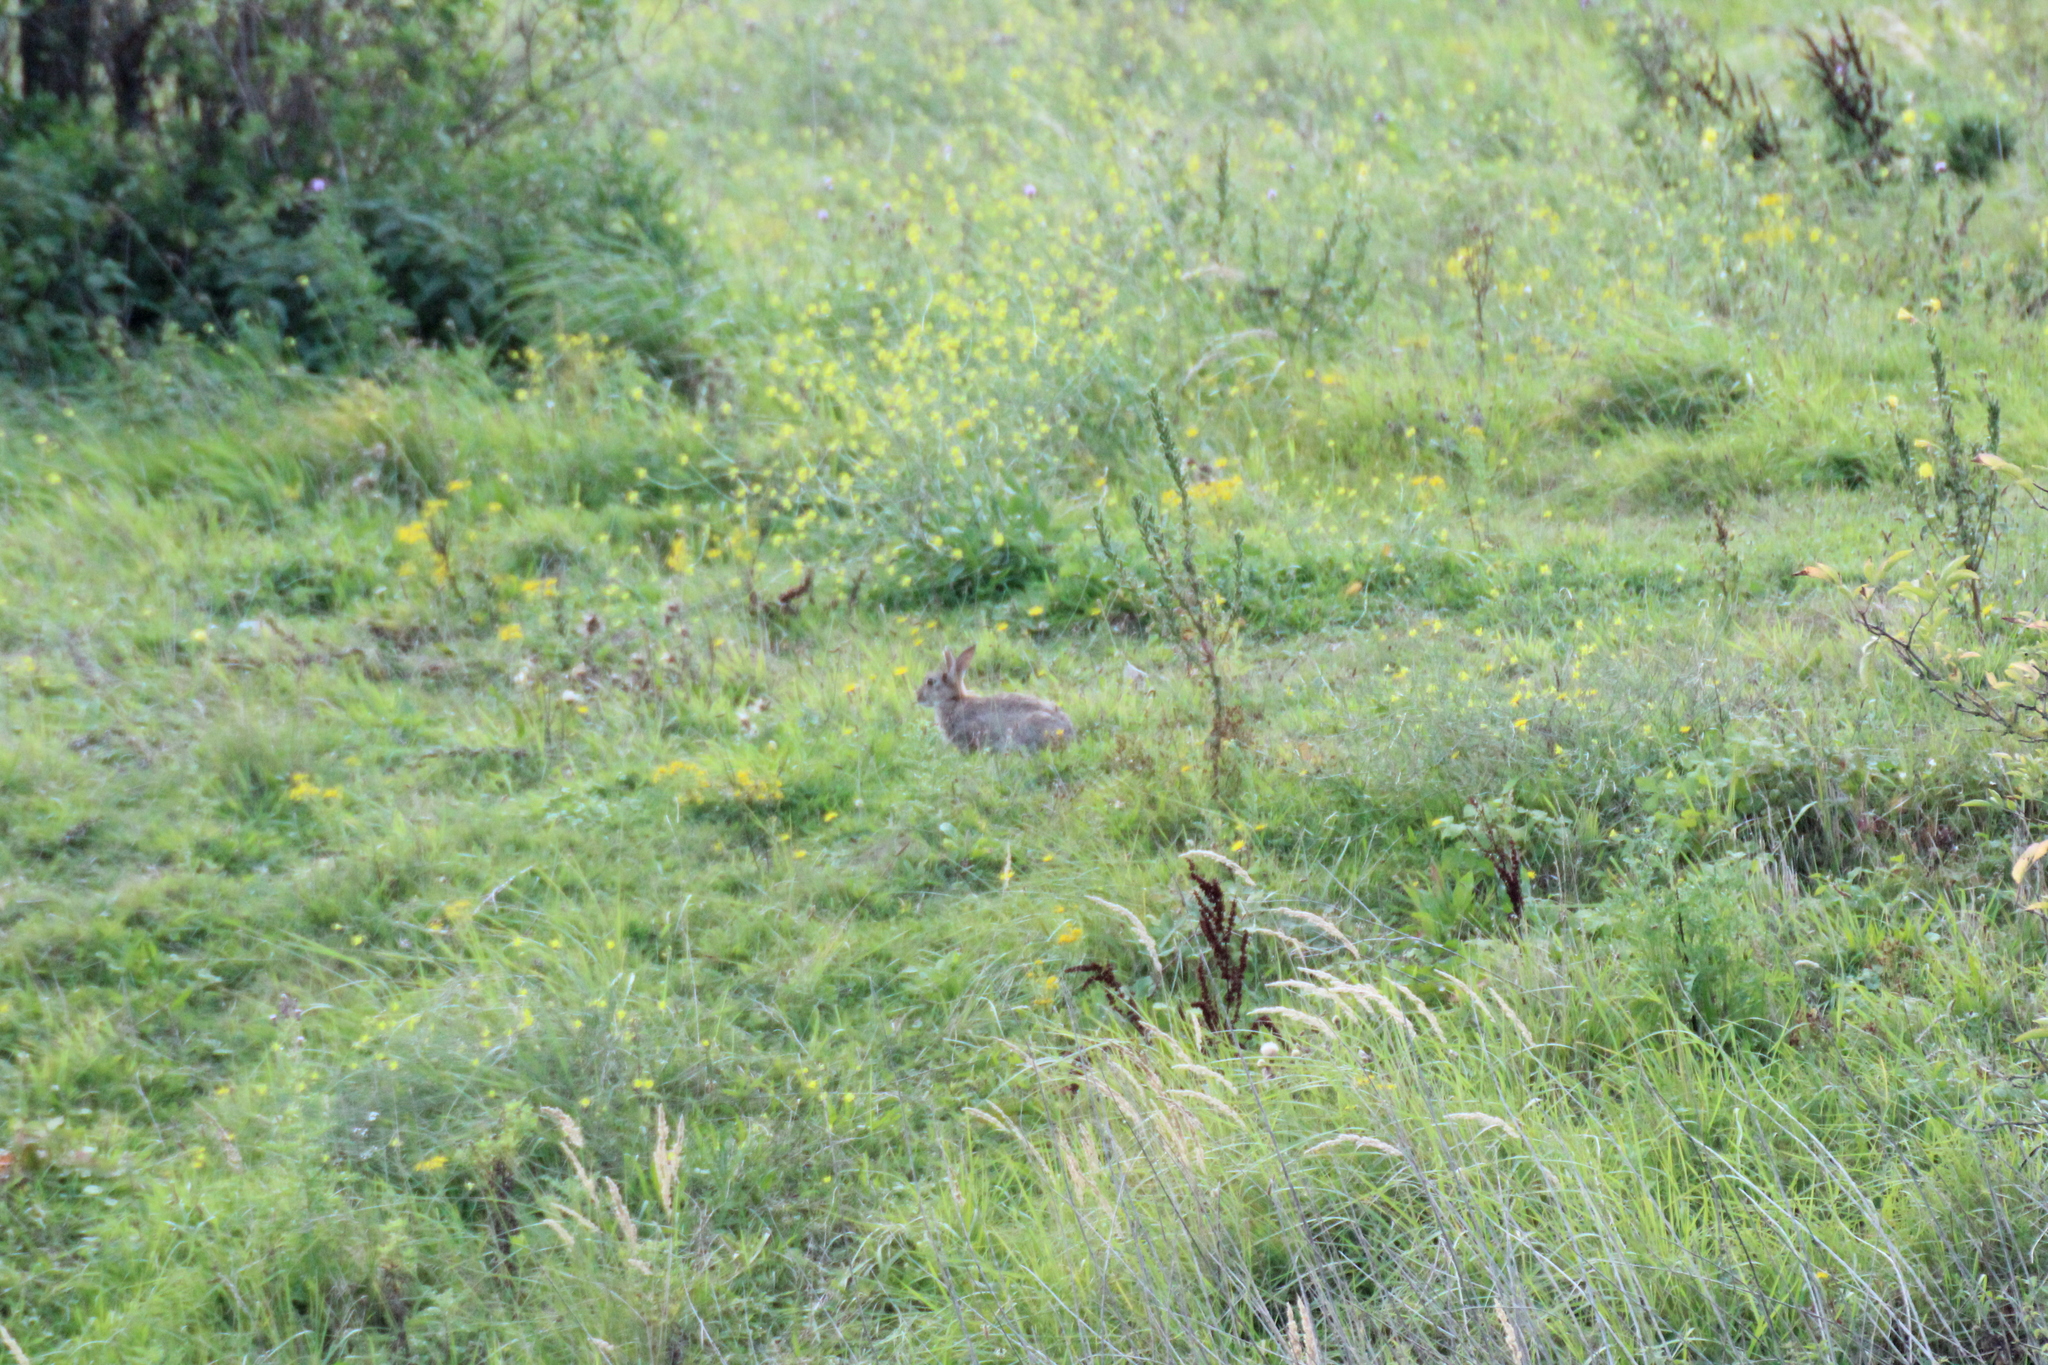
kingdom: Animalia
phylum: Chordata
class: Mammalia
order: Lagomorpha
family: Leporidae
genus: Oryctolagus
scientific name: Oryctolagus cuniculus
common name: European rabbit
